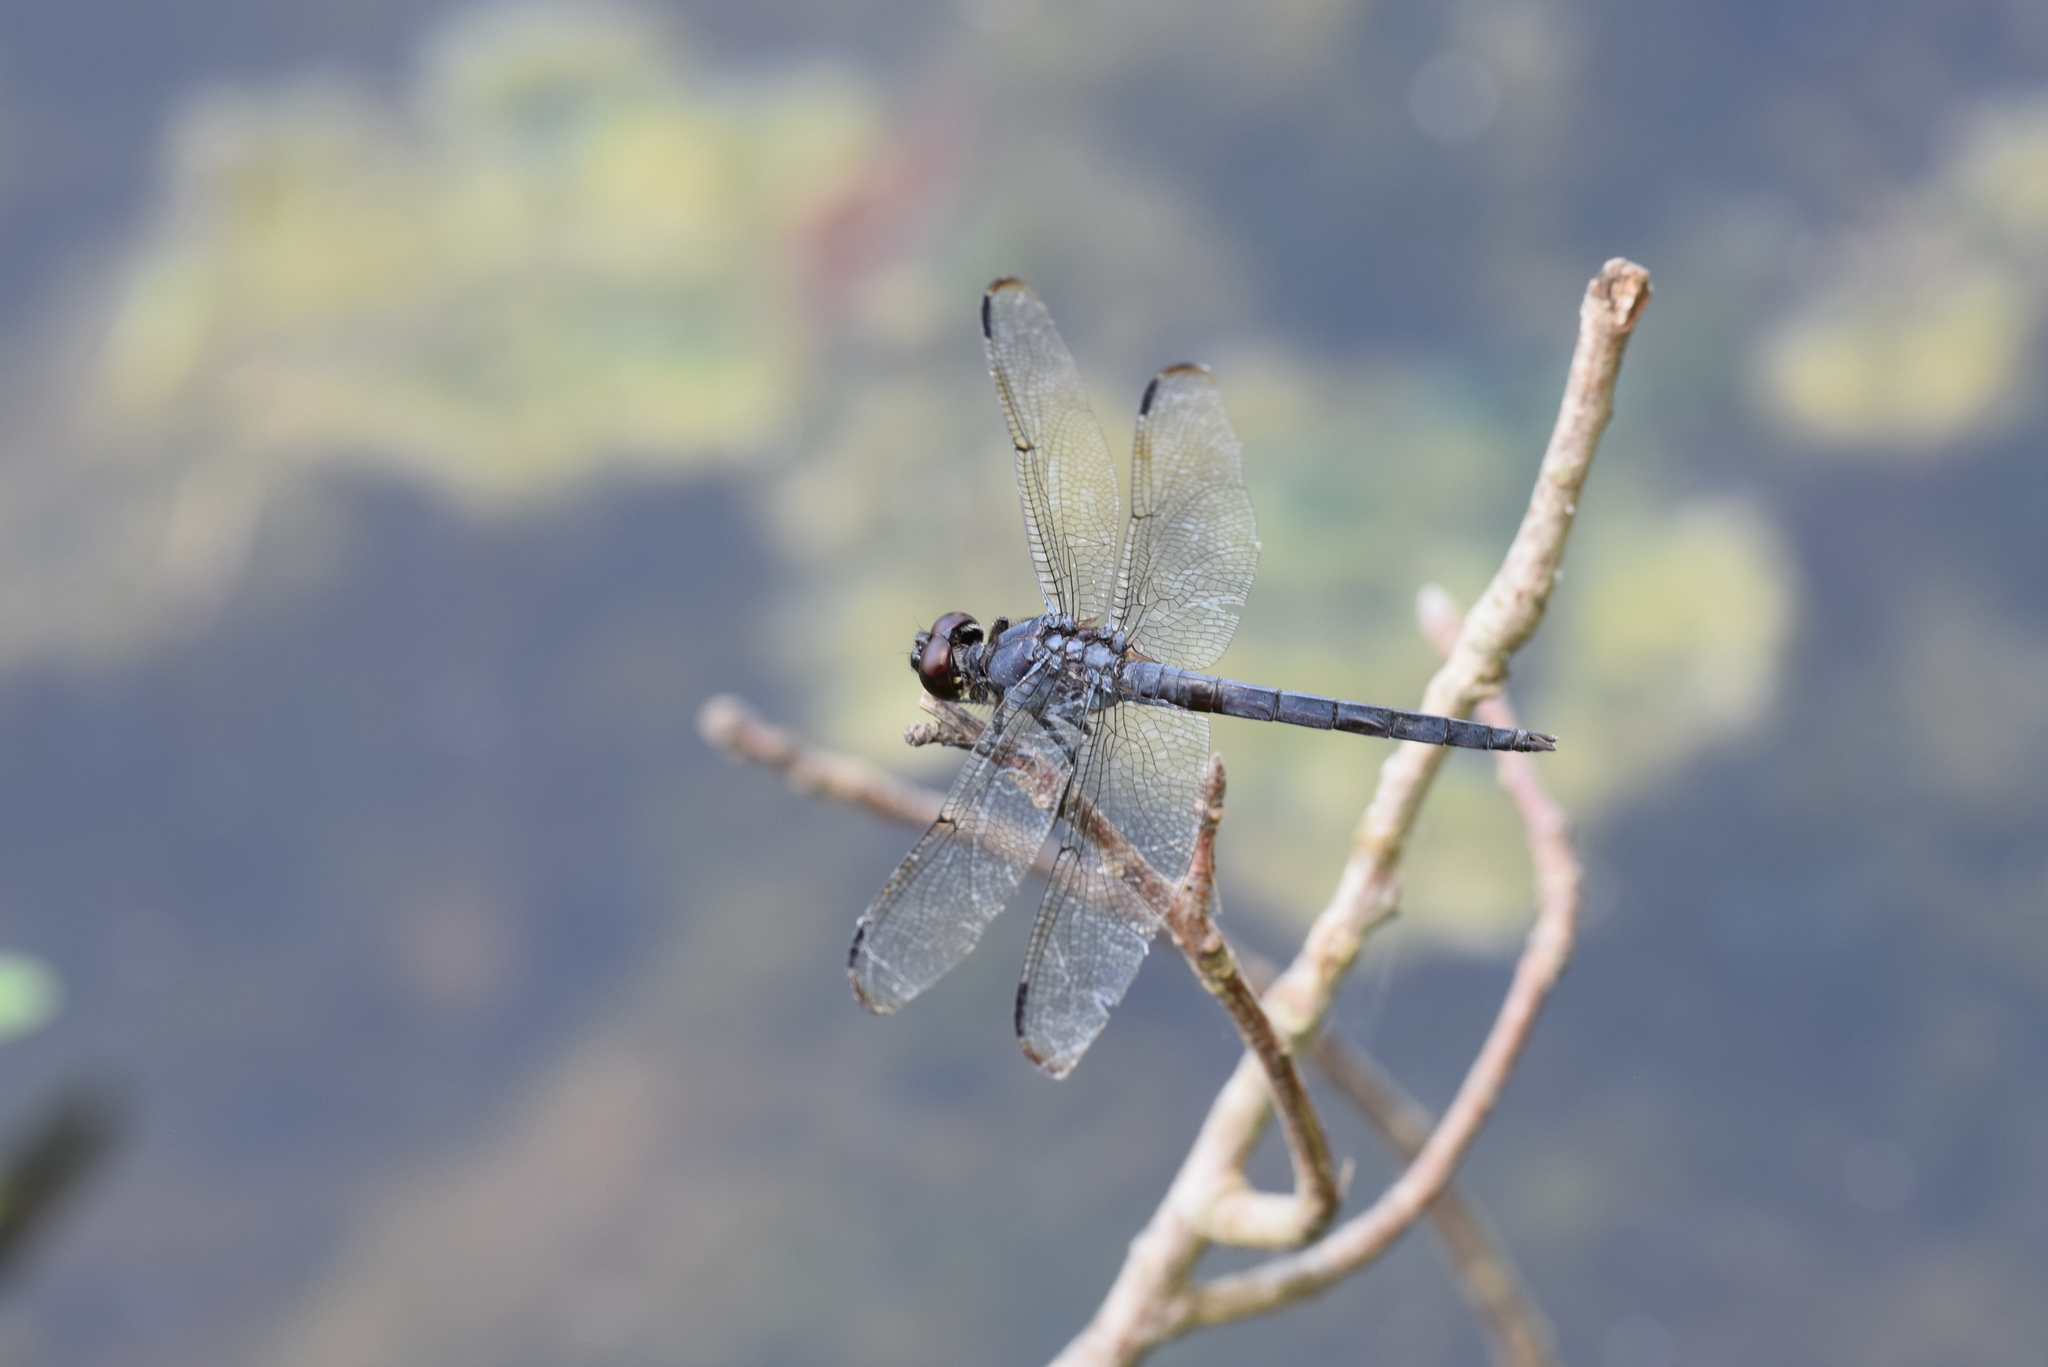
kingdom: Animalia
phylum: Arthropoda
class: Insecta
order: Odonata
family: Libellulidae
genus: Libellula
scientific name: Libellula incesta
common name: Slaty skimmer
